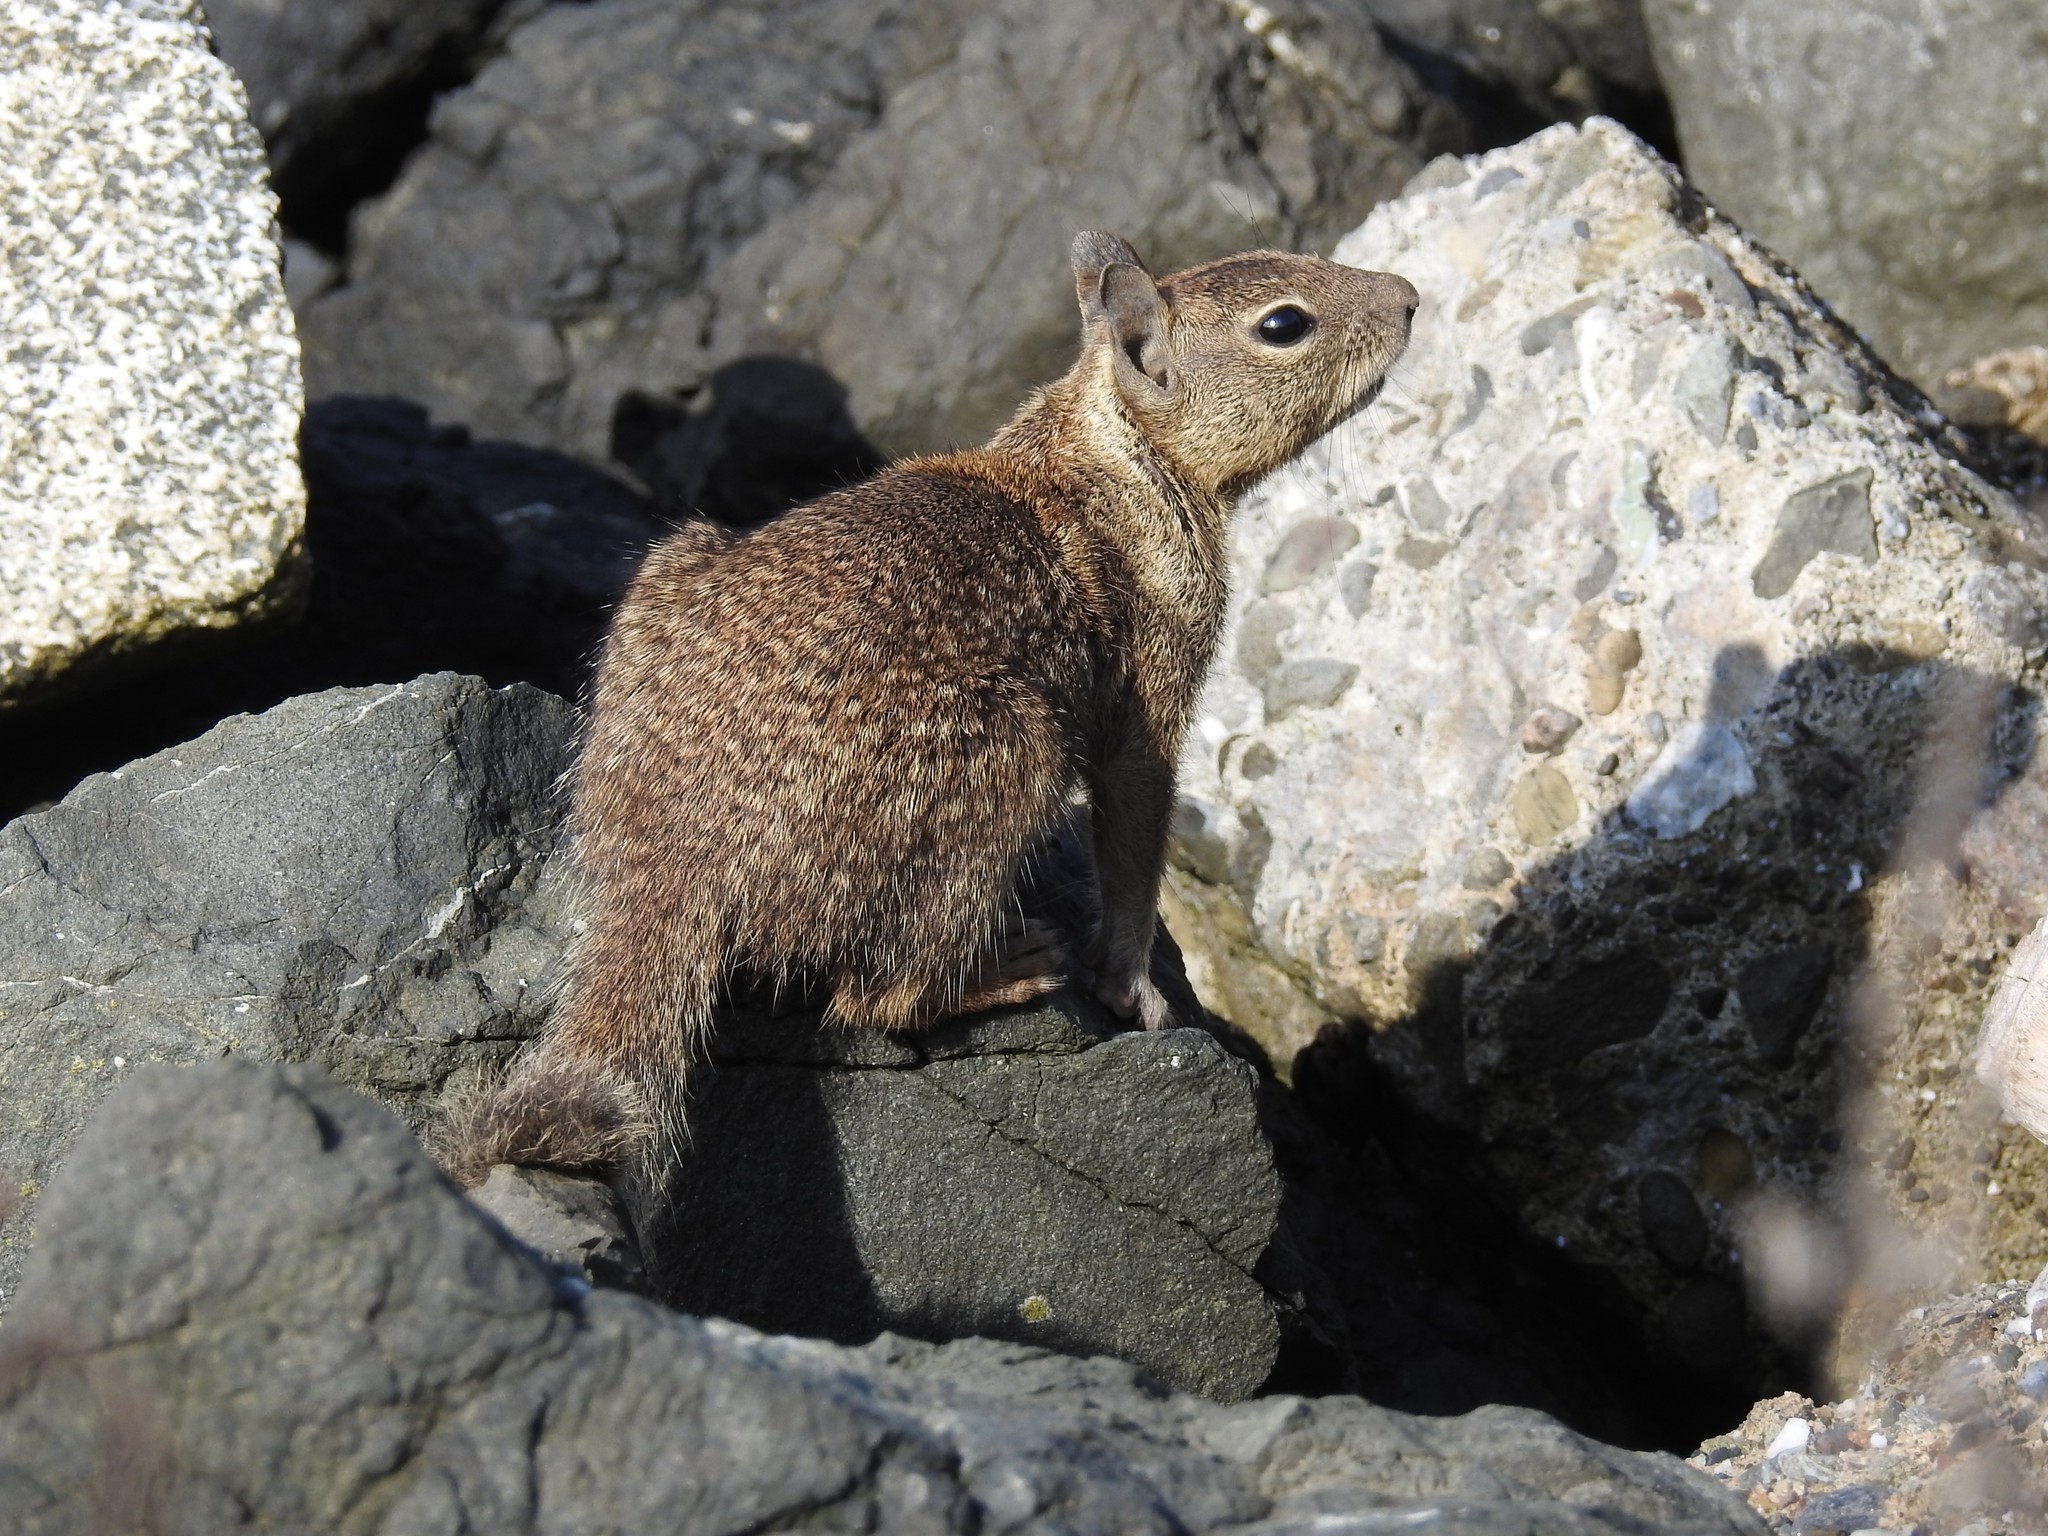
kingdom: Animalia
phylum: Chordata
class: Mammalia
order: Rodentia
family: Sciuridae
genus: Otospermophilus
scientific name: Otospermophilus beecheyi
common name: California ground squirrel
